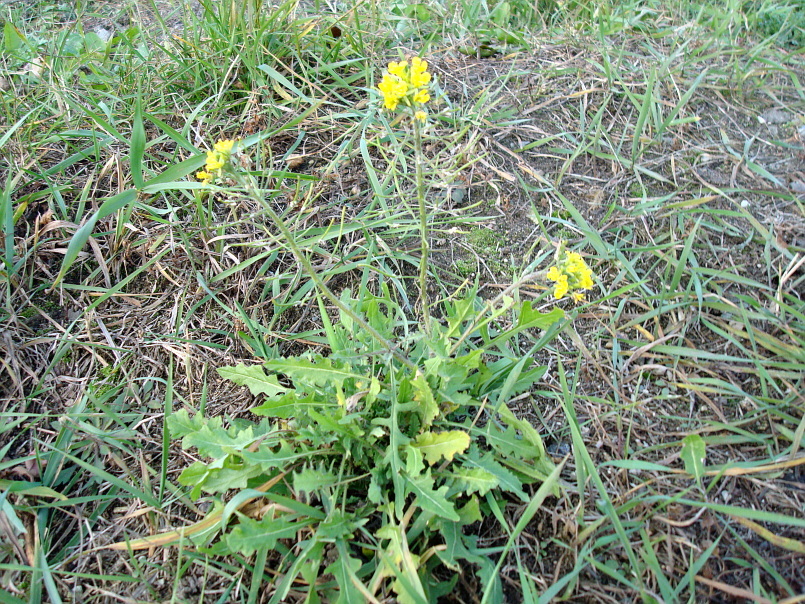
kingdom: Plantae
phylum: Tracheophyta
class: Magnoliopsida
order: Brassicales
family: Brassicaceae
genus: Sisymbrium
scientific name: Sisymbrium loeselii
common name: False london-rocket
